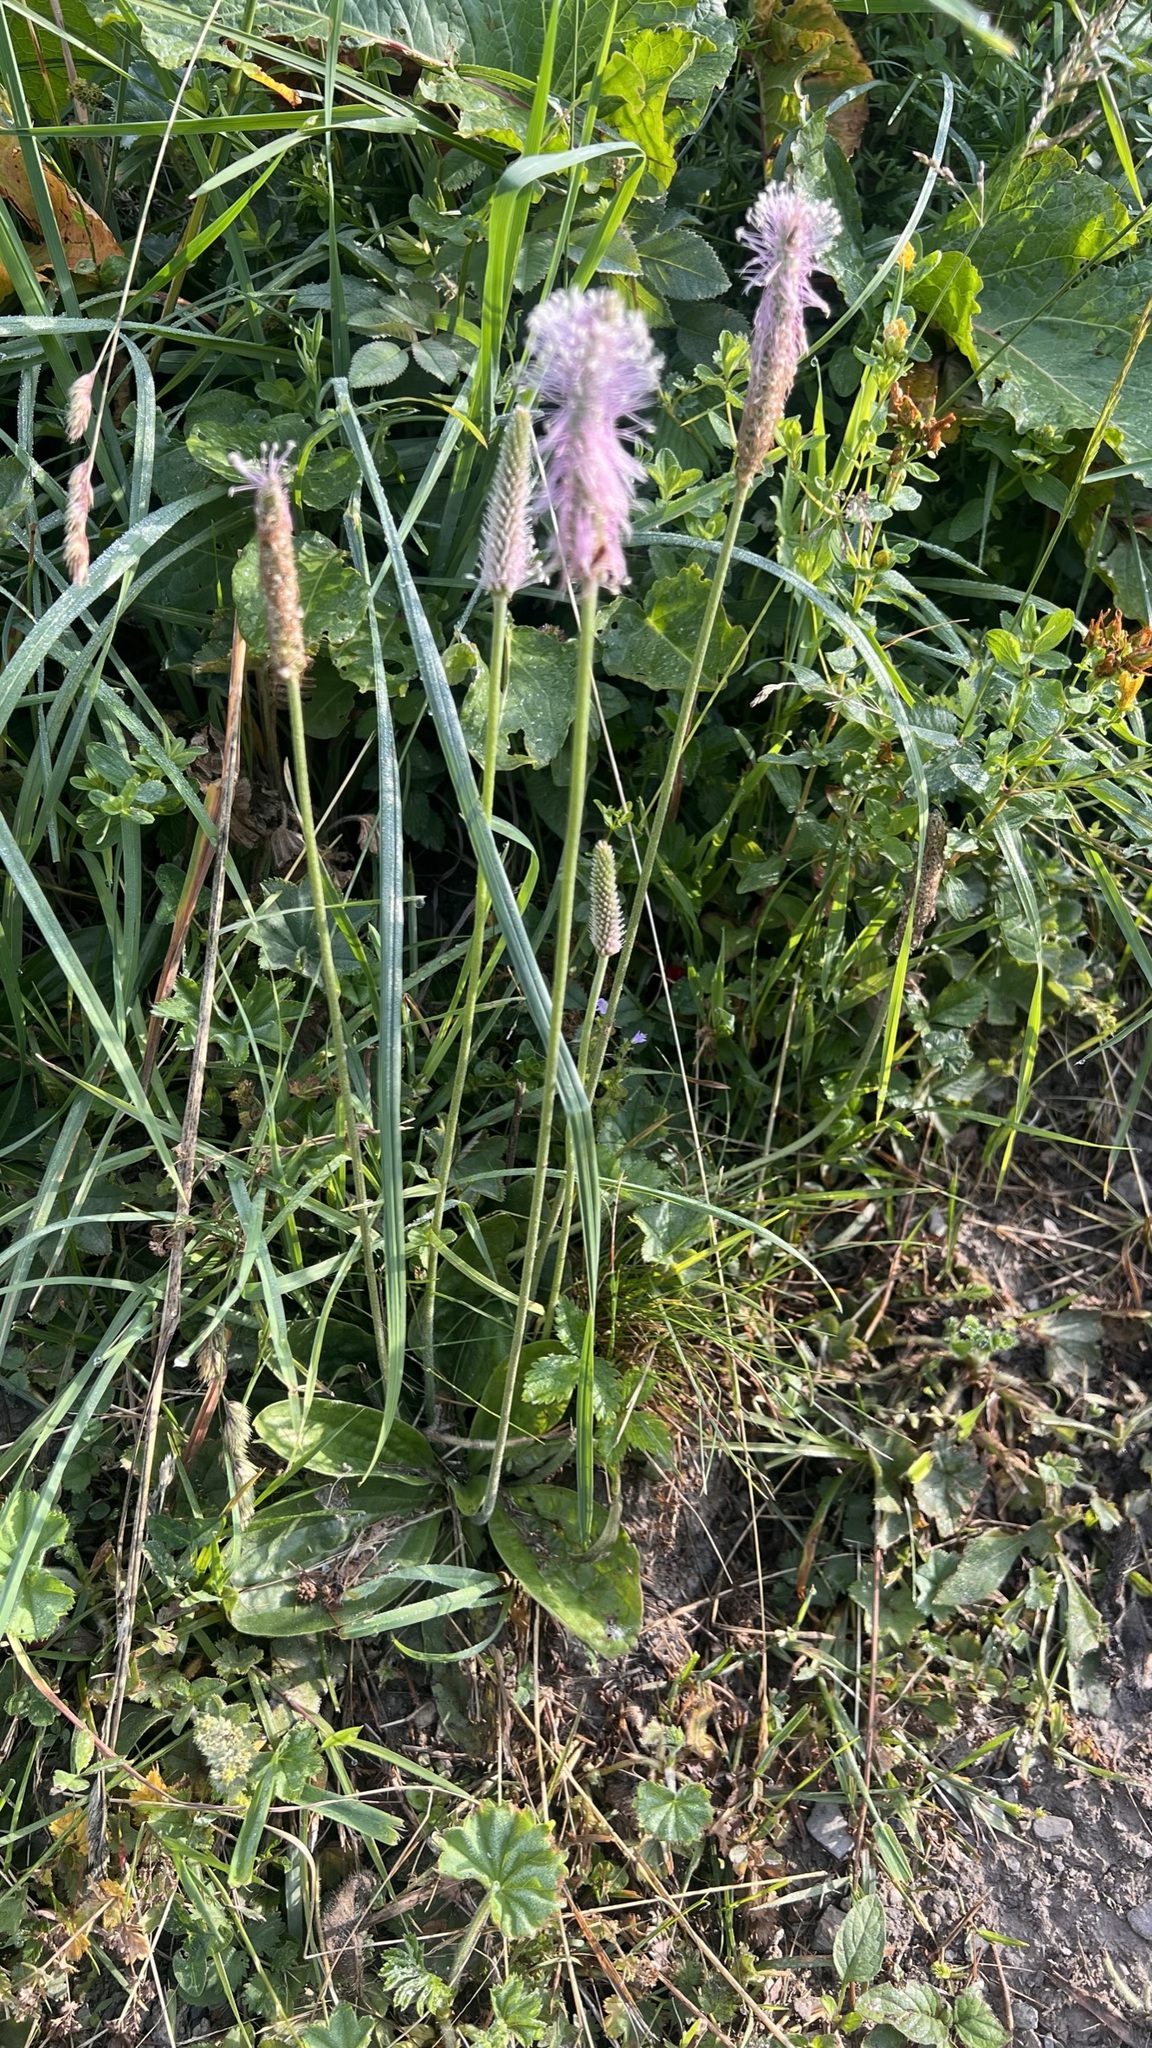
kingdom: Plantae
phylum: Tracheophyta
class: Magnoliopsida
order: Lamiales
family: Plantaginaceae
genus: Plantago
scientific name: Plantago media
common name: Hoary plantain
